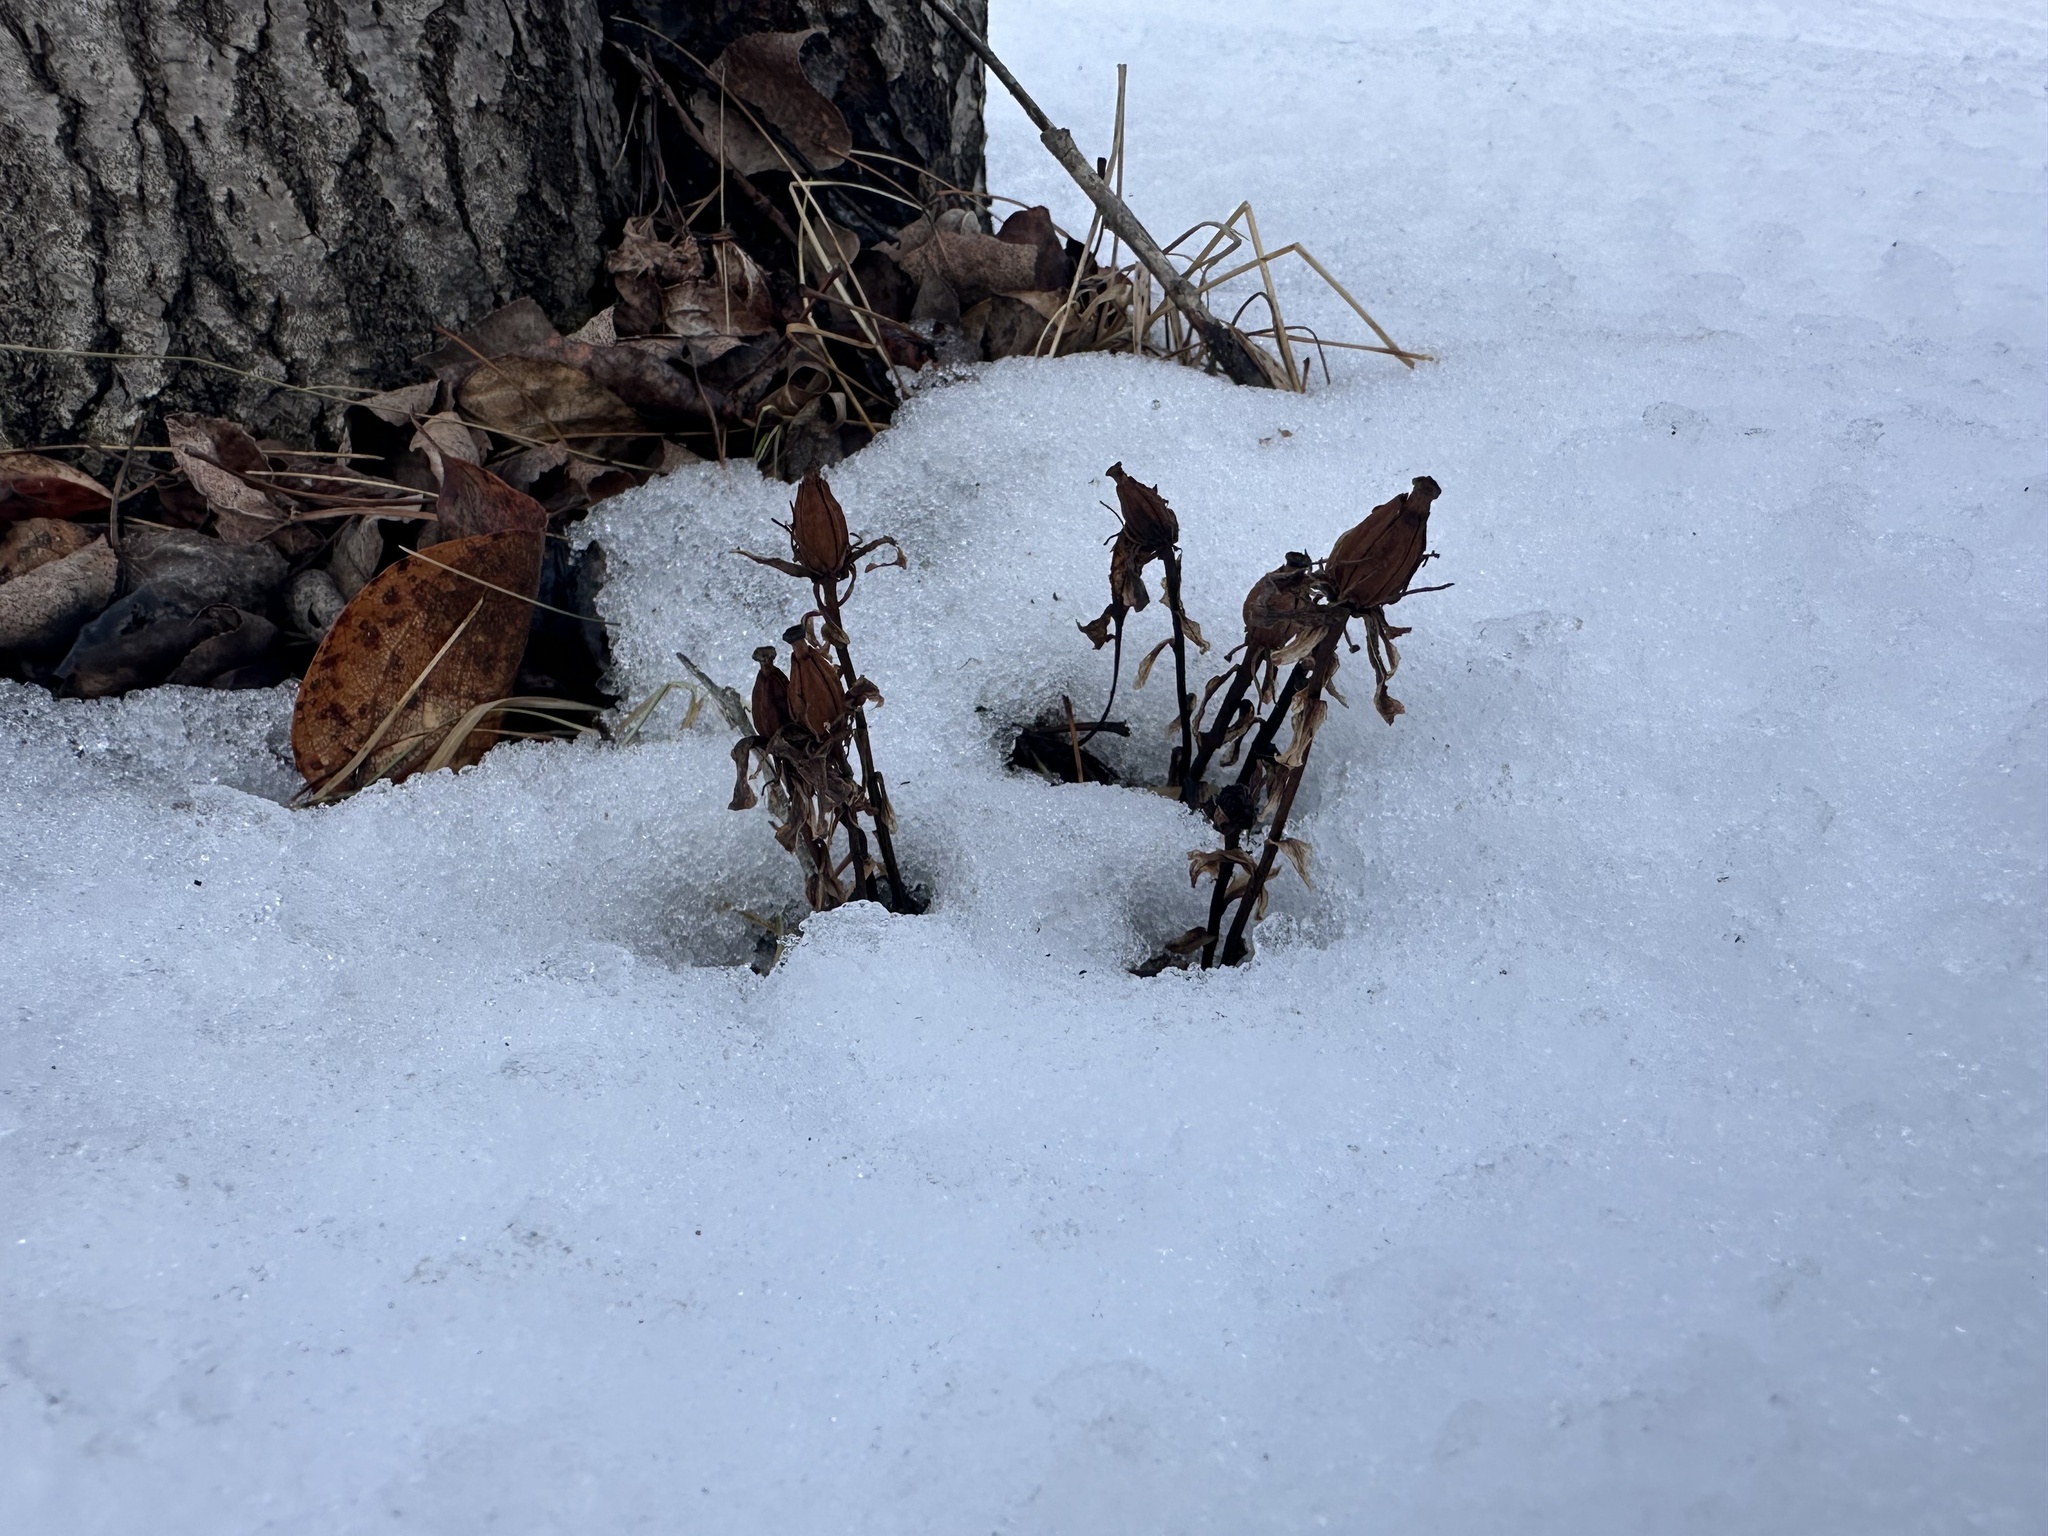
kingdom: Plantae
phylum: Tracheophyta
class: Magnoliopsida
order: Ericales
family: Ericaceae
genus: Monotropa
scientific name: Monotropa uniflora
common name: Convulsion root
